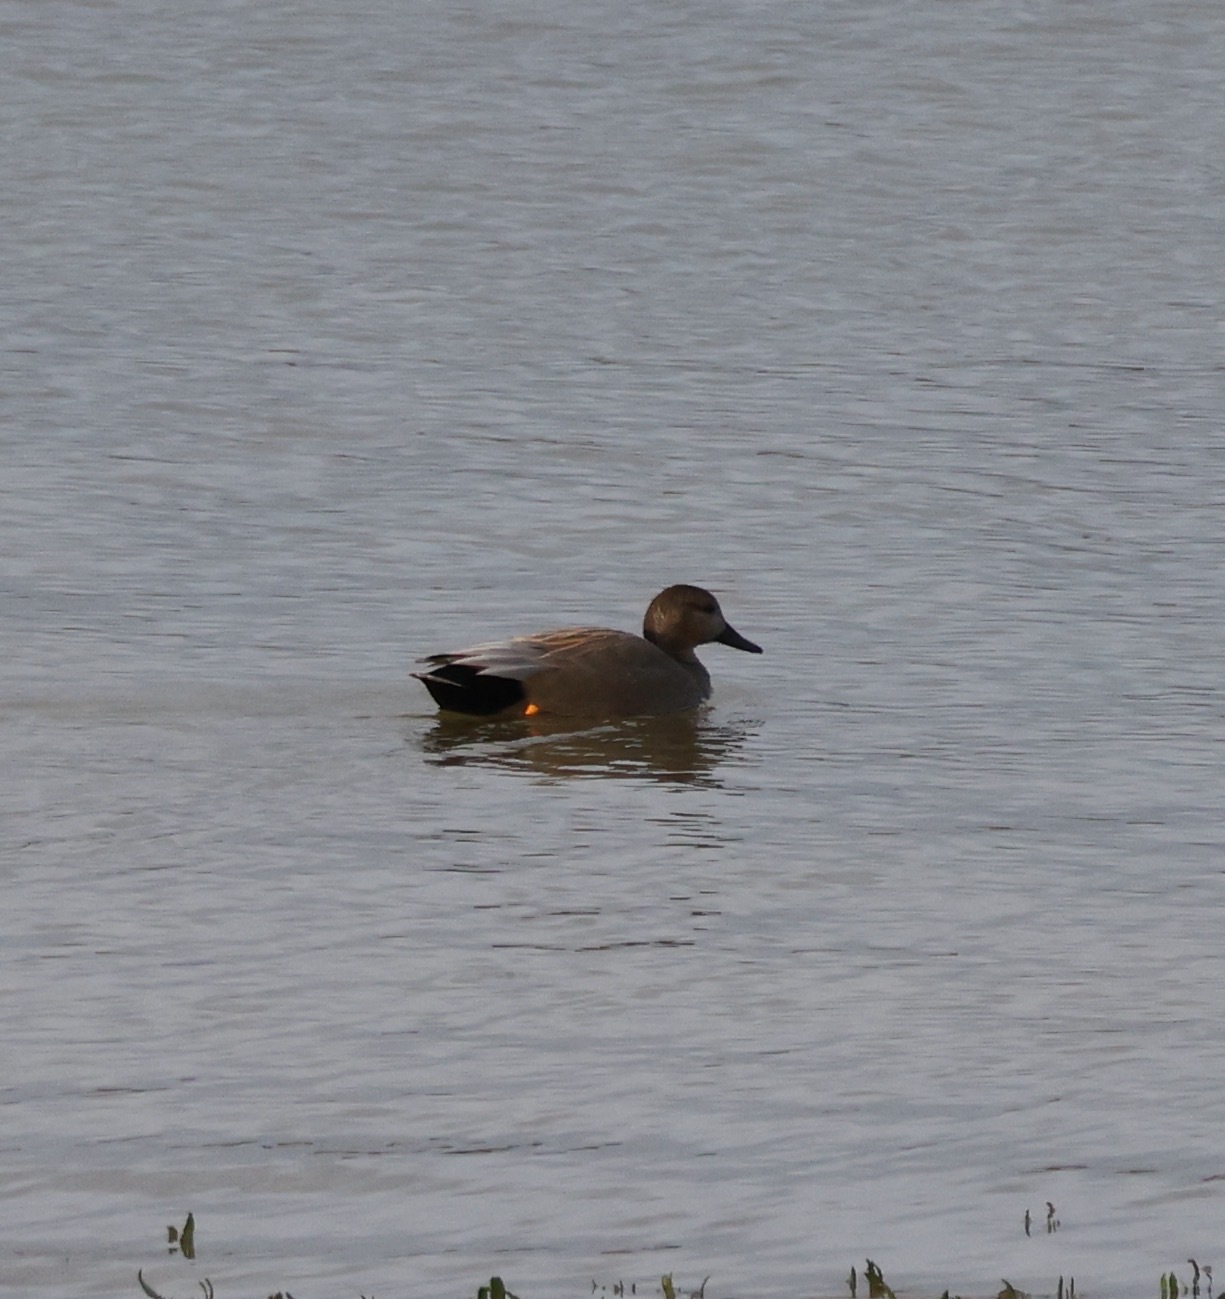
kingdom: Animalia
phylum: Chordata
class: Aves
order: Anseriformes
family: Anatidae
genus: Mareca
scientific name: Mareca strepera
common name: Gadwall
